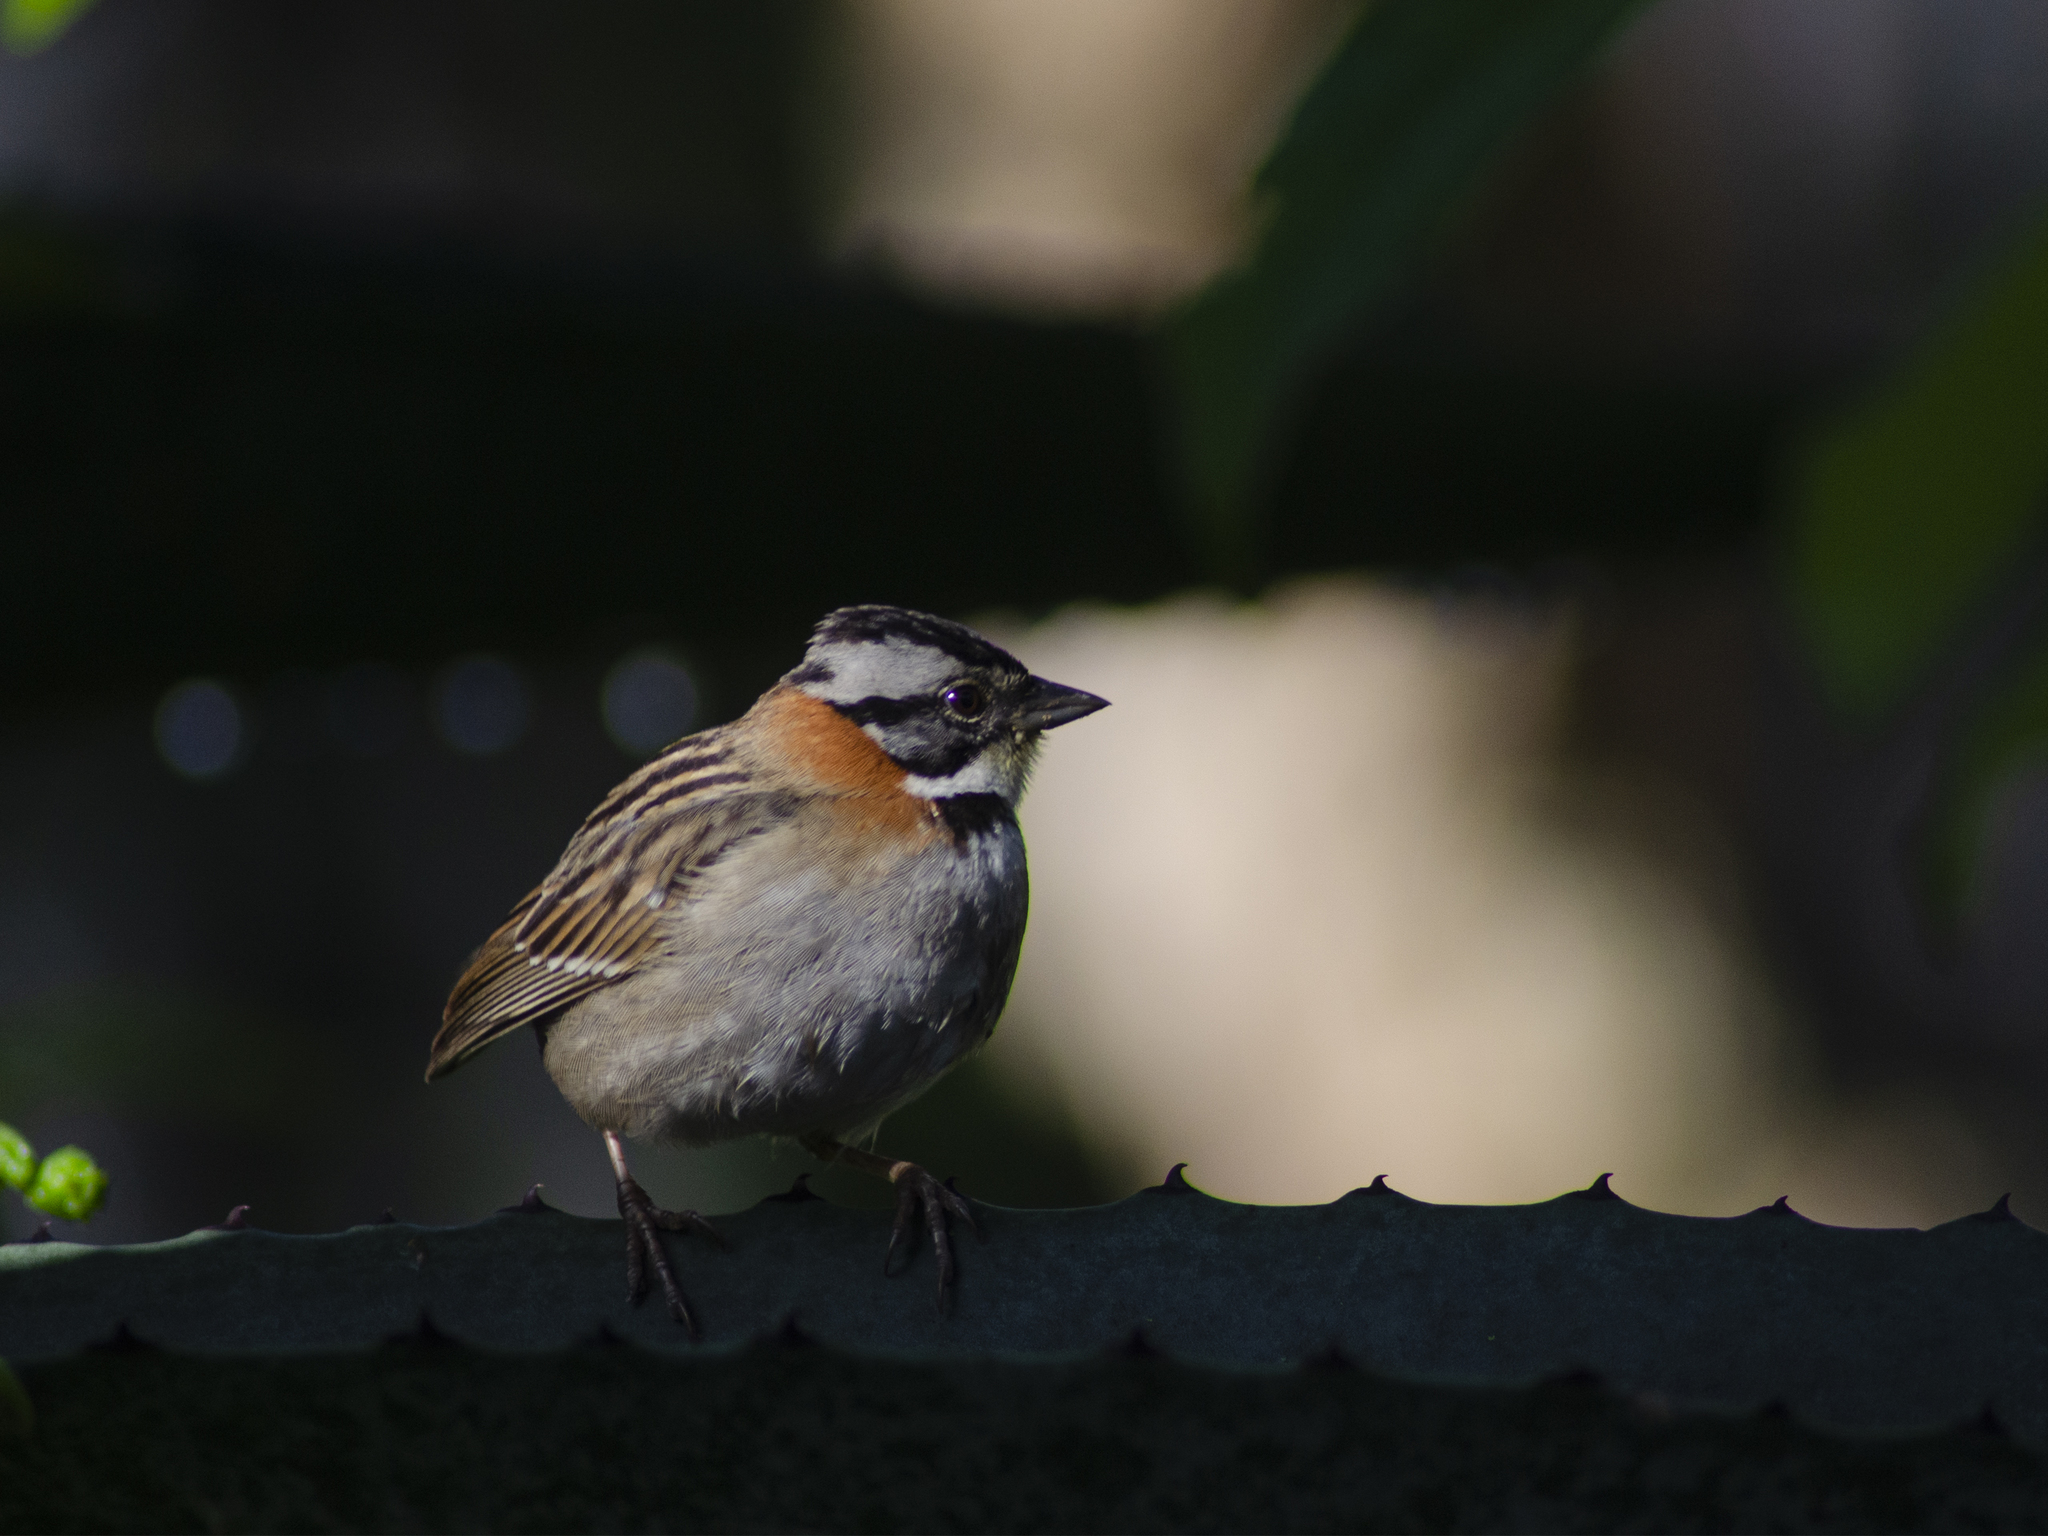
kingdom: Animalia
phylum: Chordata
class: Aves
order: Passeriformes
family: Passerellidae
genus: Zonotrichia
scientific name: Zonotrichia capensis
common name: Rufous-collared sparrow
